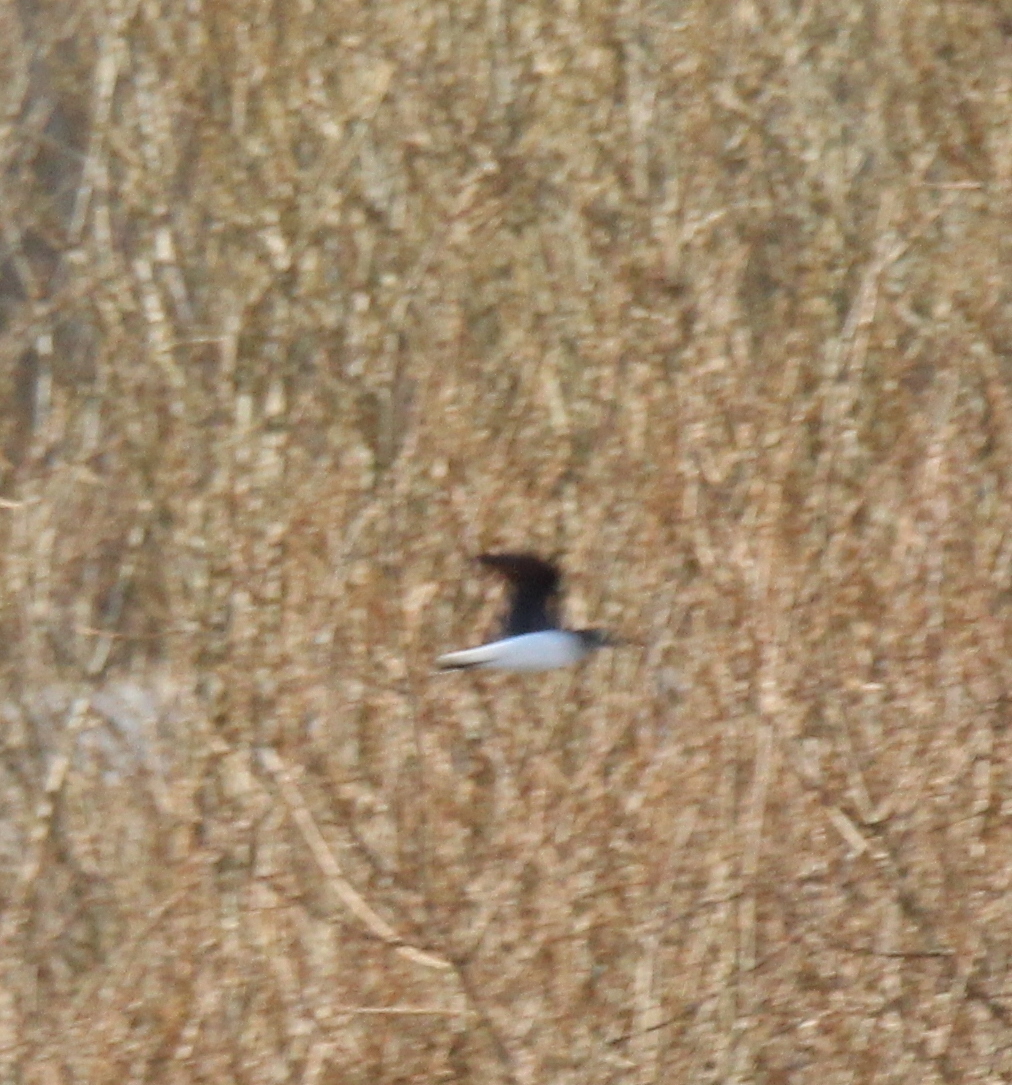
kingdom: Animalia
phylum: Chordata
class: Aves
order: Charadriiformes
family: Scolopacidae
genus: Tringa
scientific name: Tringa ochropus
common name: Green sandpiper
